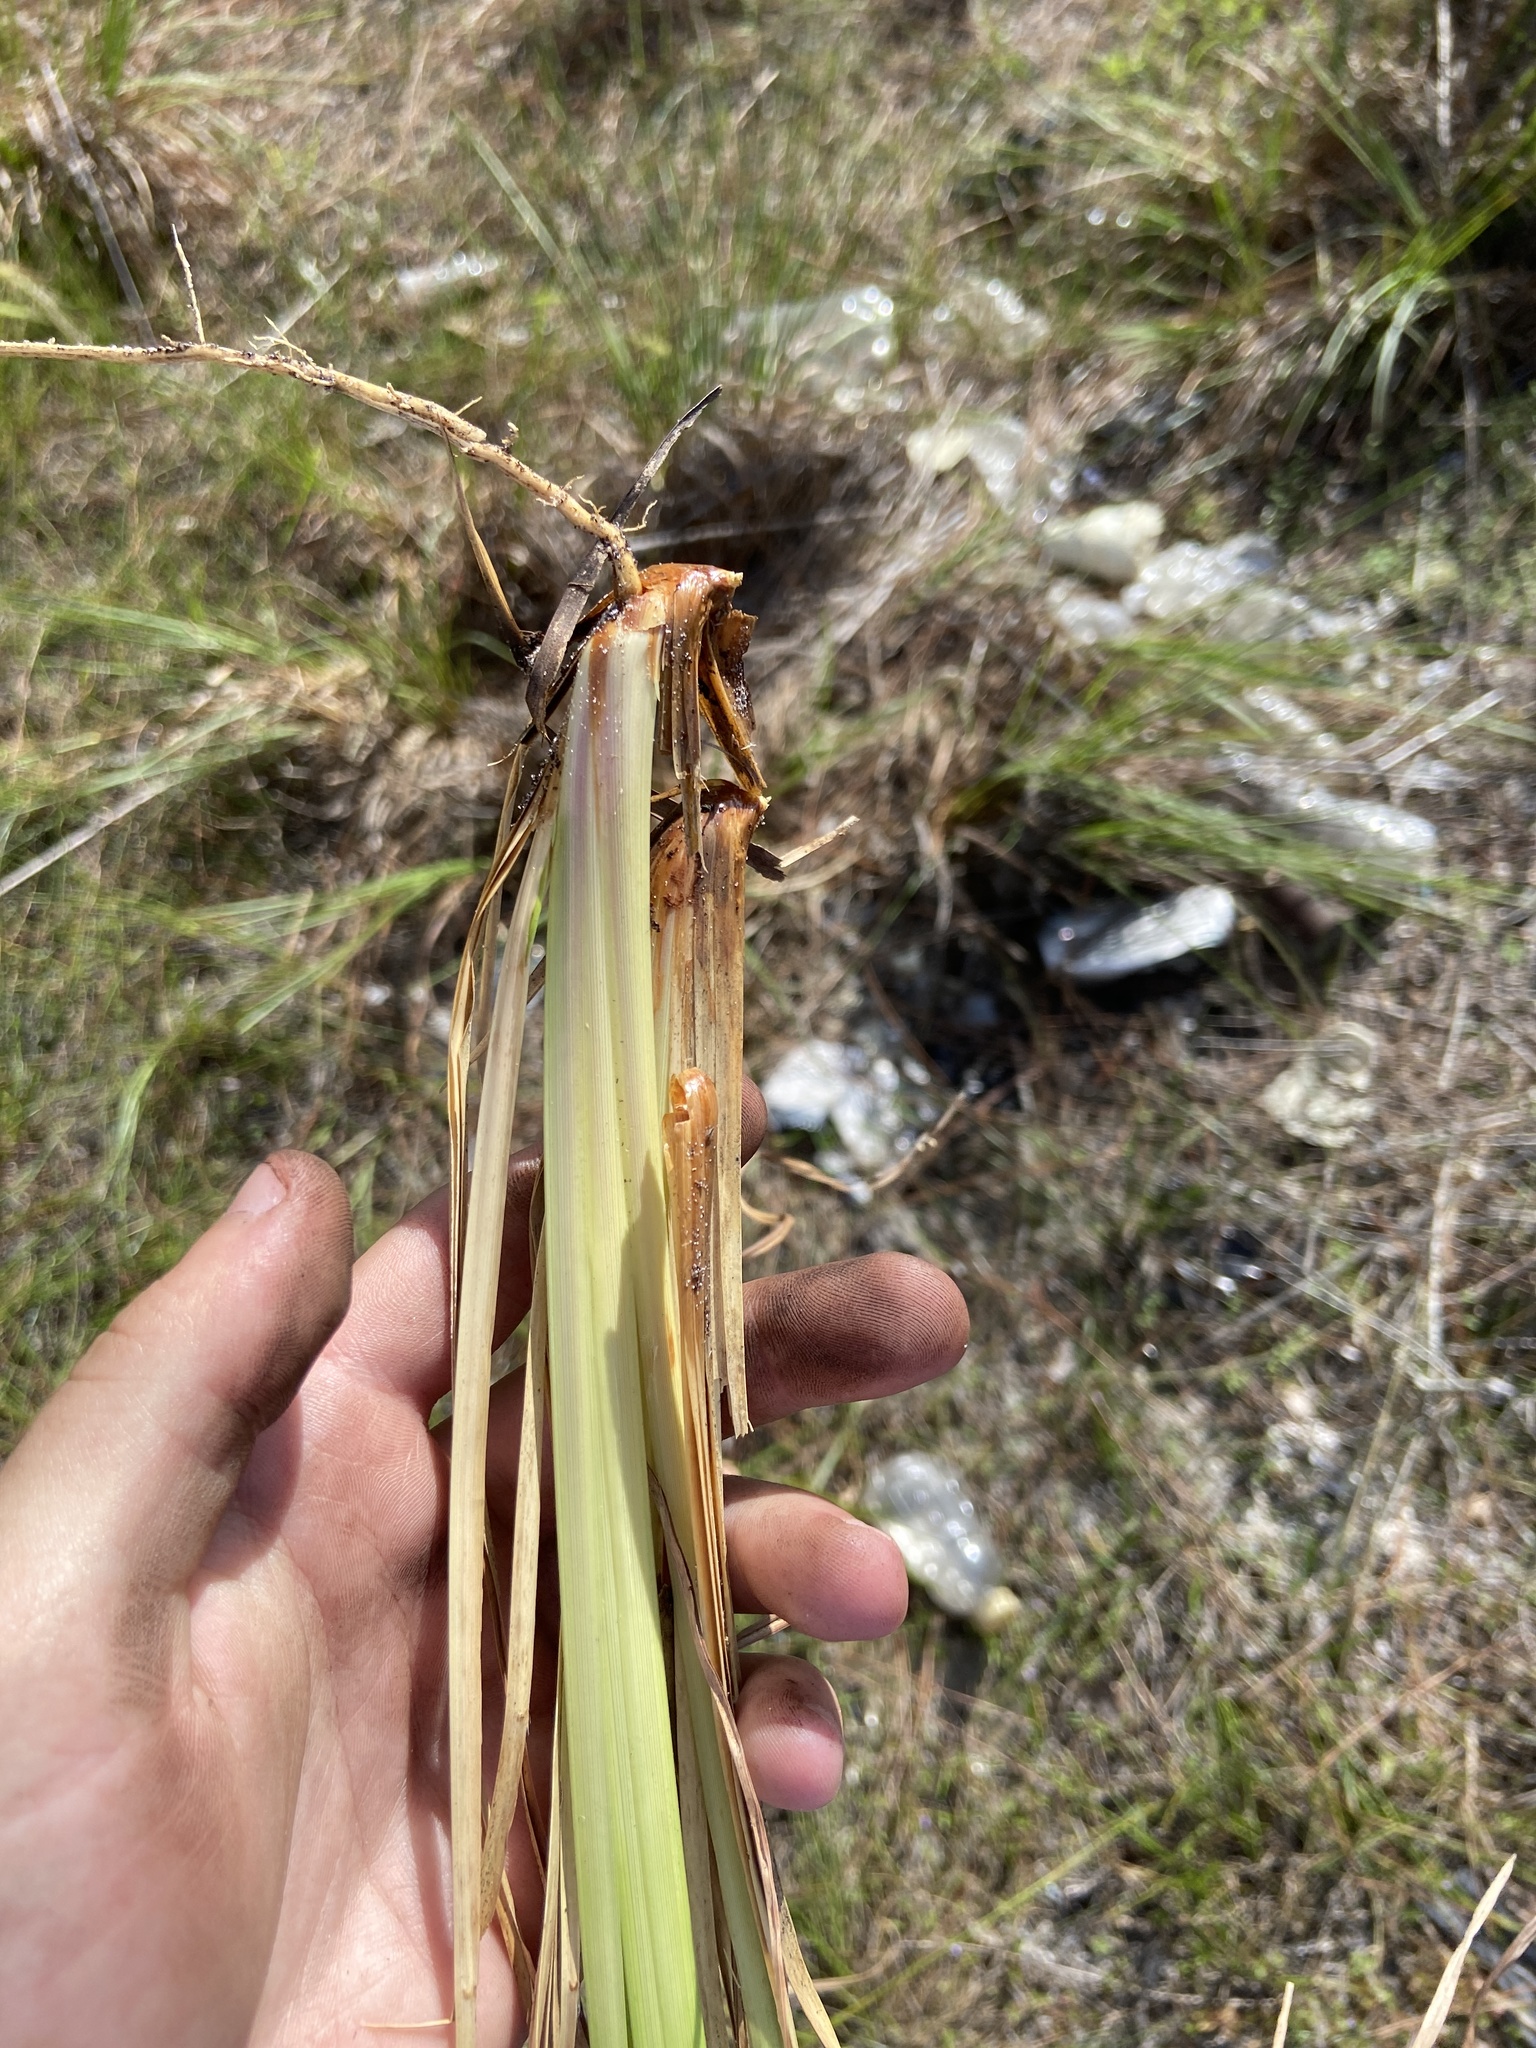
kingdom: Plantae
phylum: Tracheophyta
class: Liliopsida
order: Poales
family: Poaceae
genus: Andropogon
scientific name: Andropogon brachystachyus
